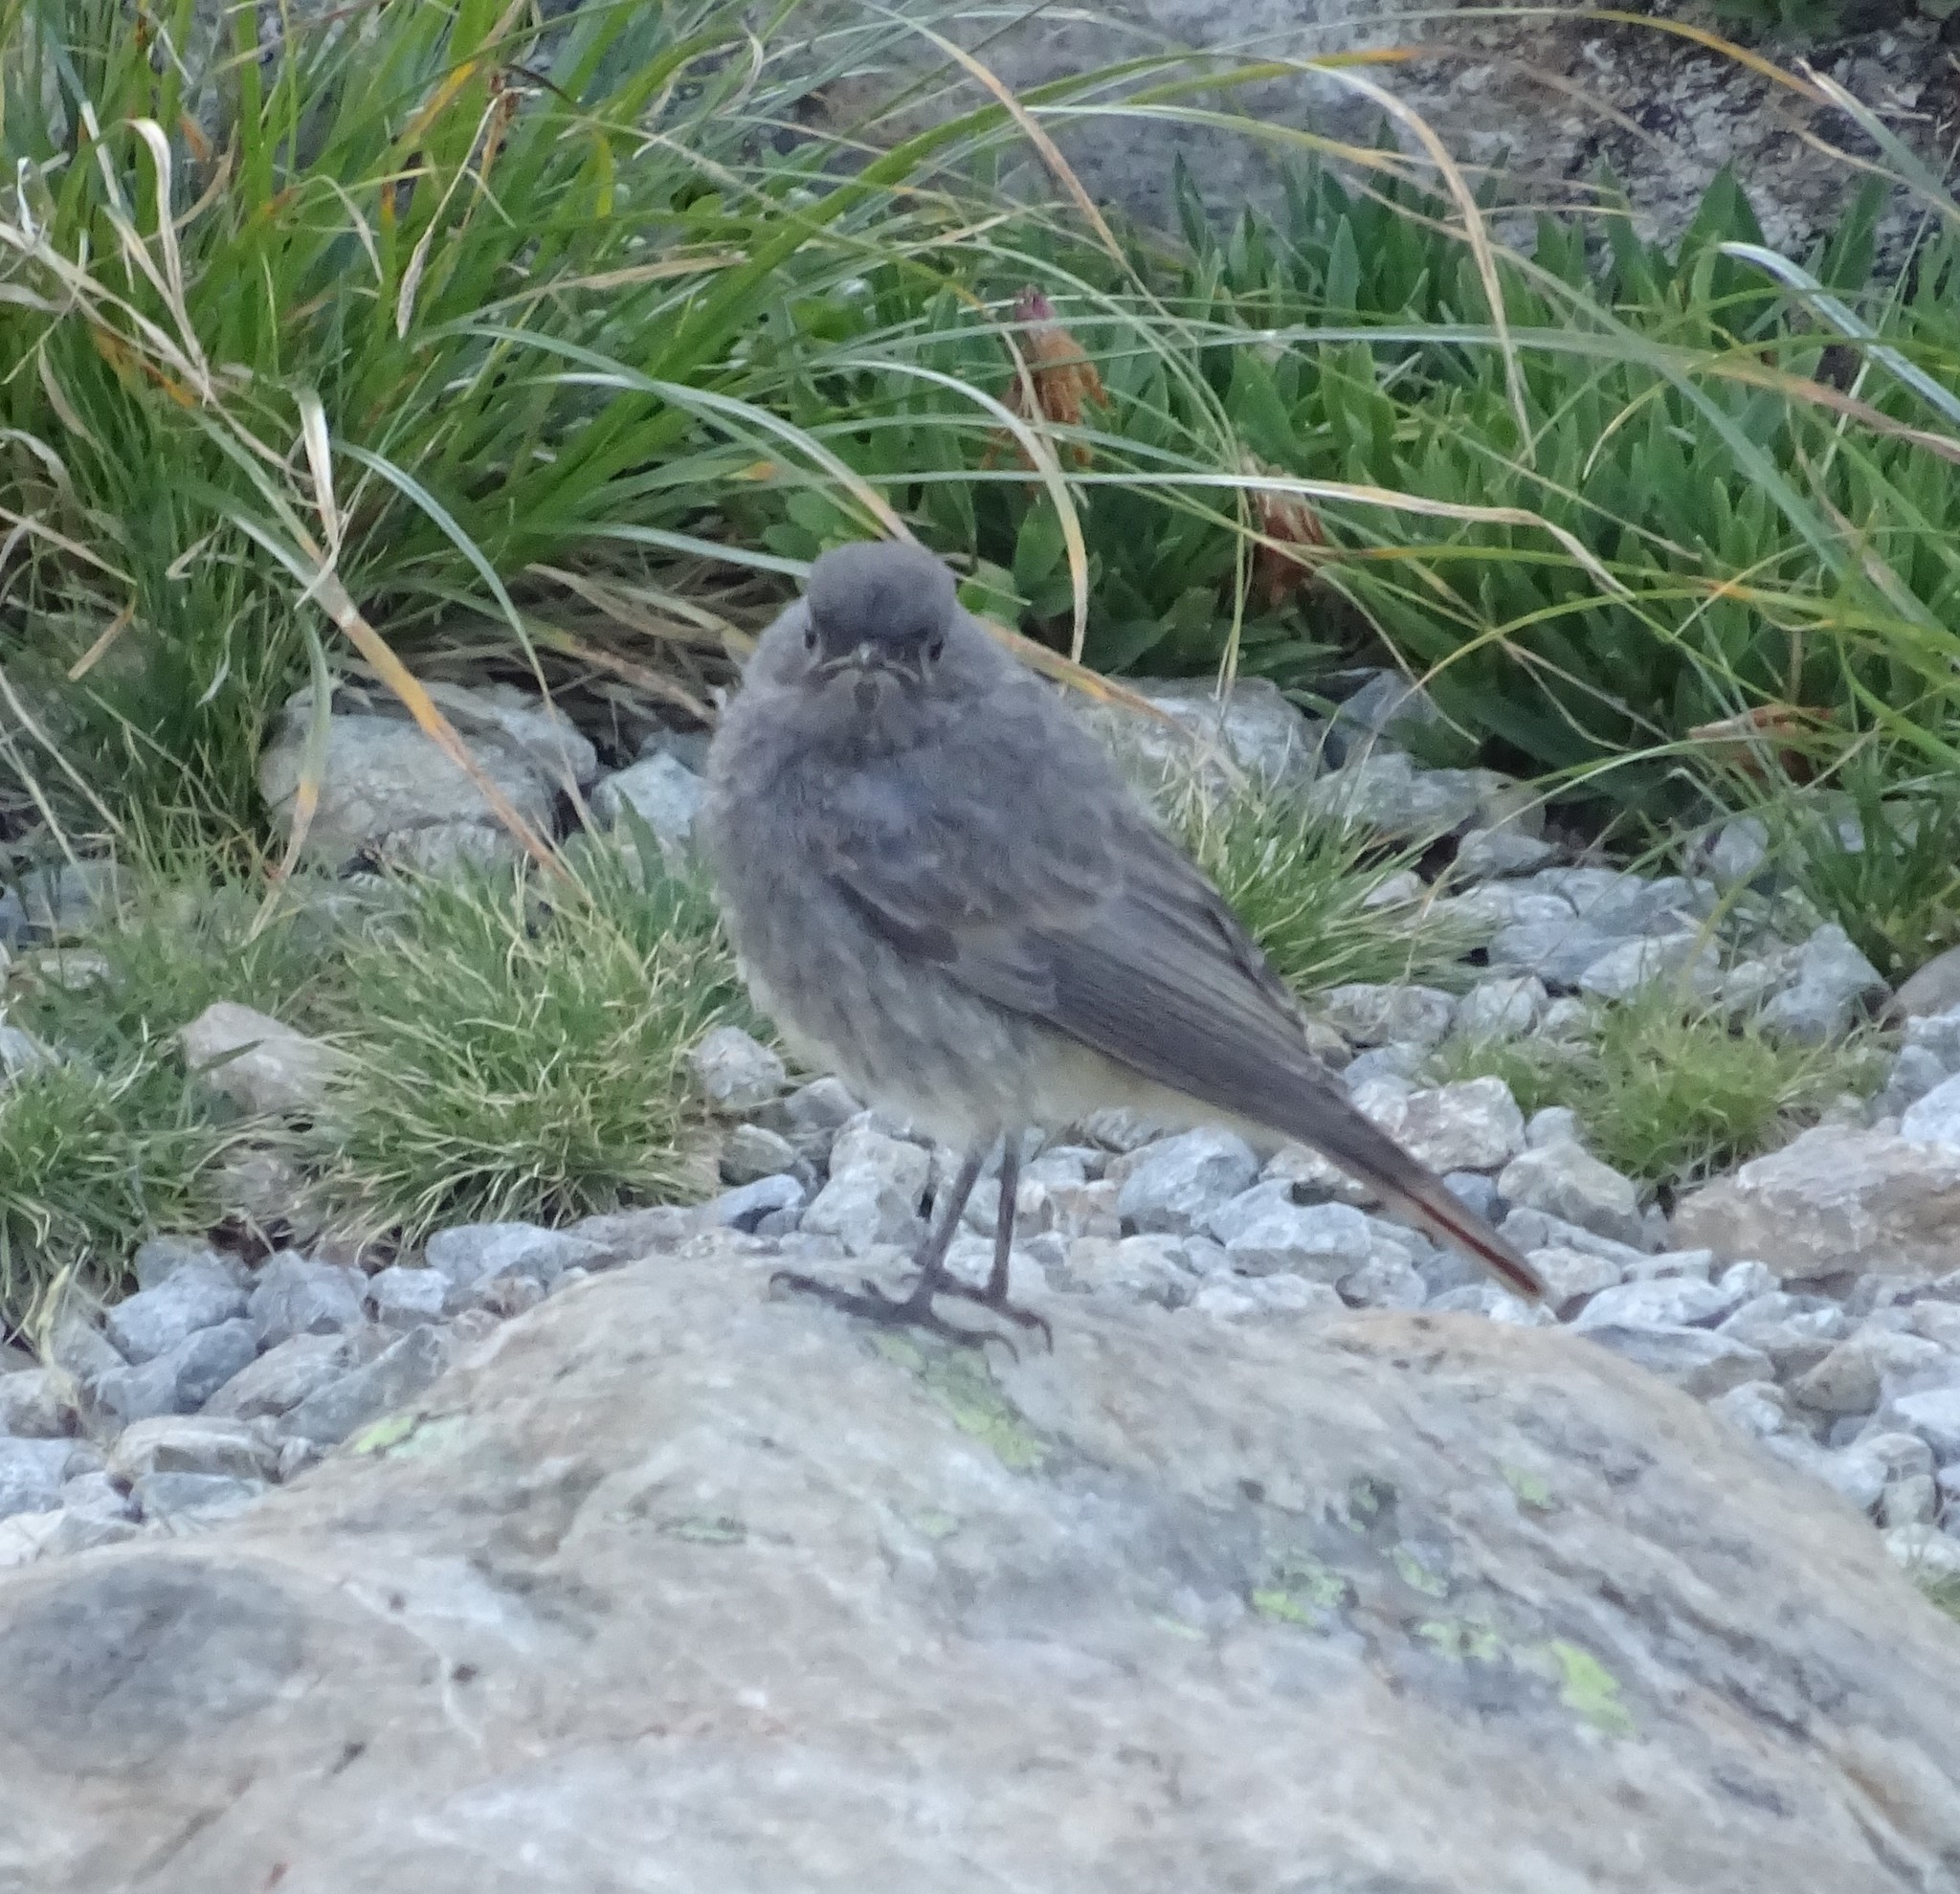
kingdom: Animalia
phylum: Chordata
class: Aves
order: Passeriformes
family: Muscicapidae
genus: Phoenicurus
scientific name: Phoenicurus ochruros
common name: Black redstart
